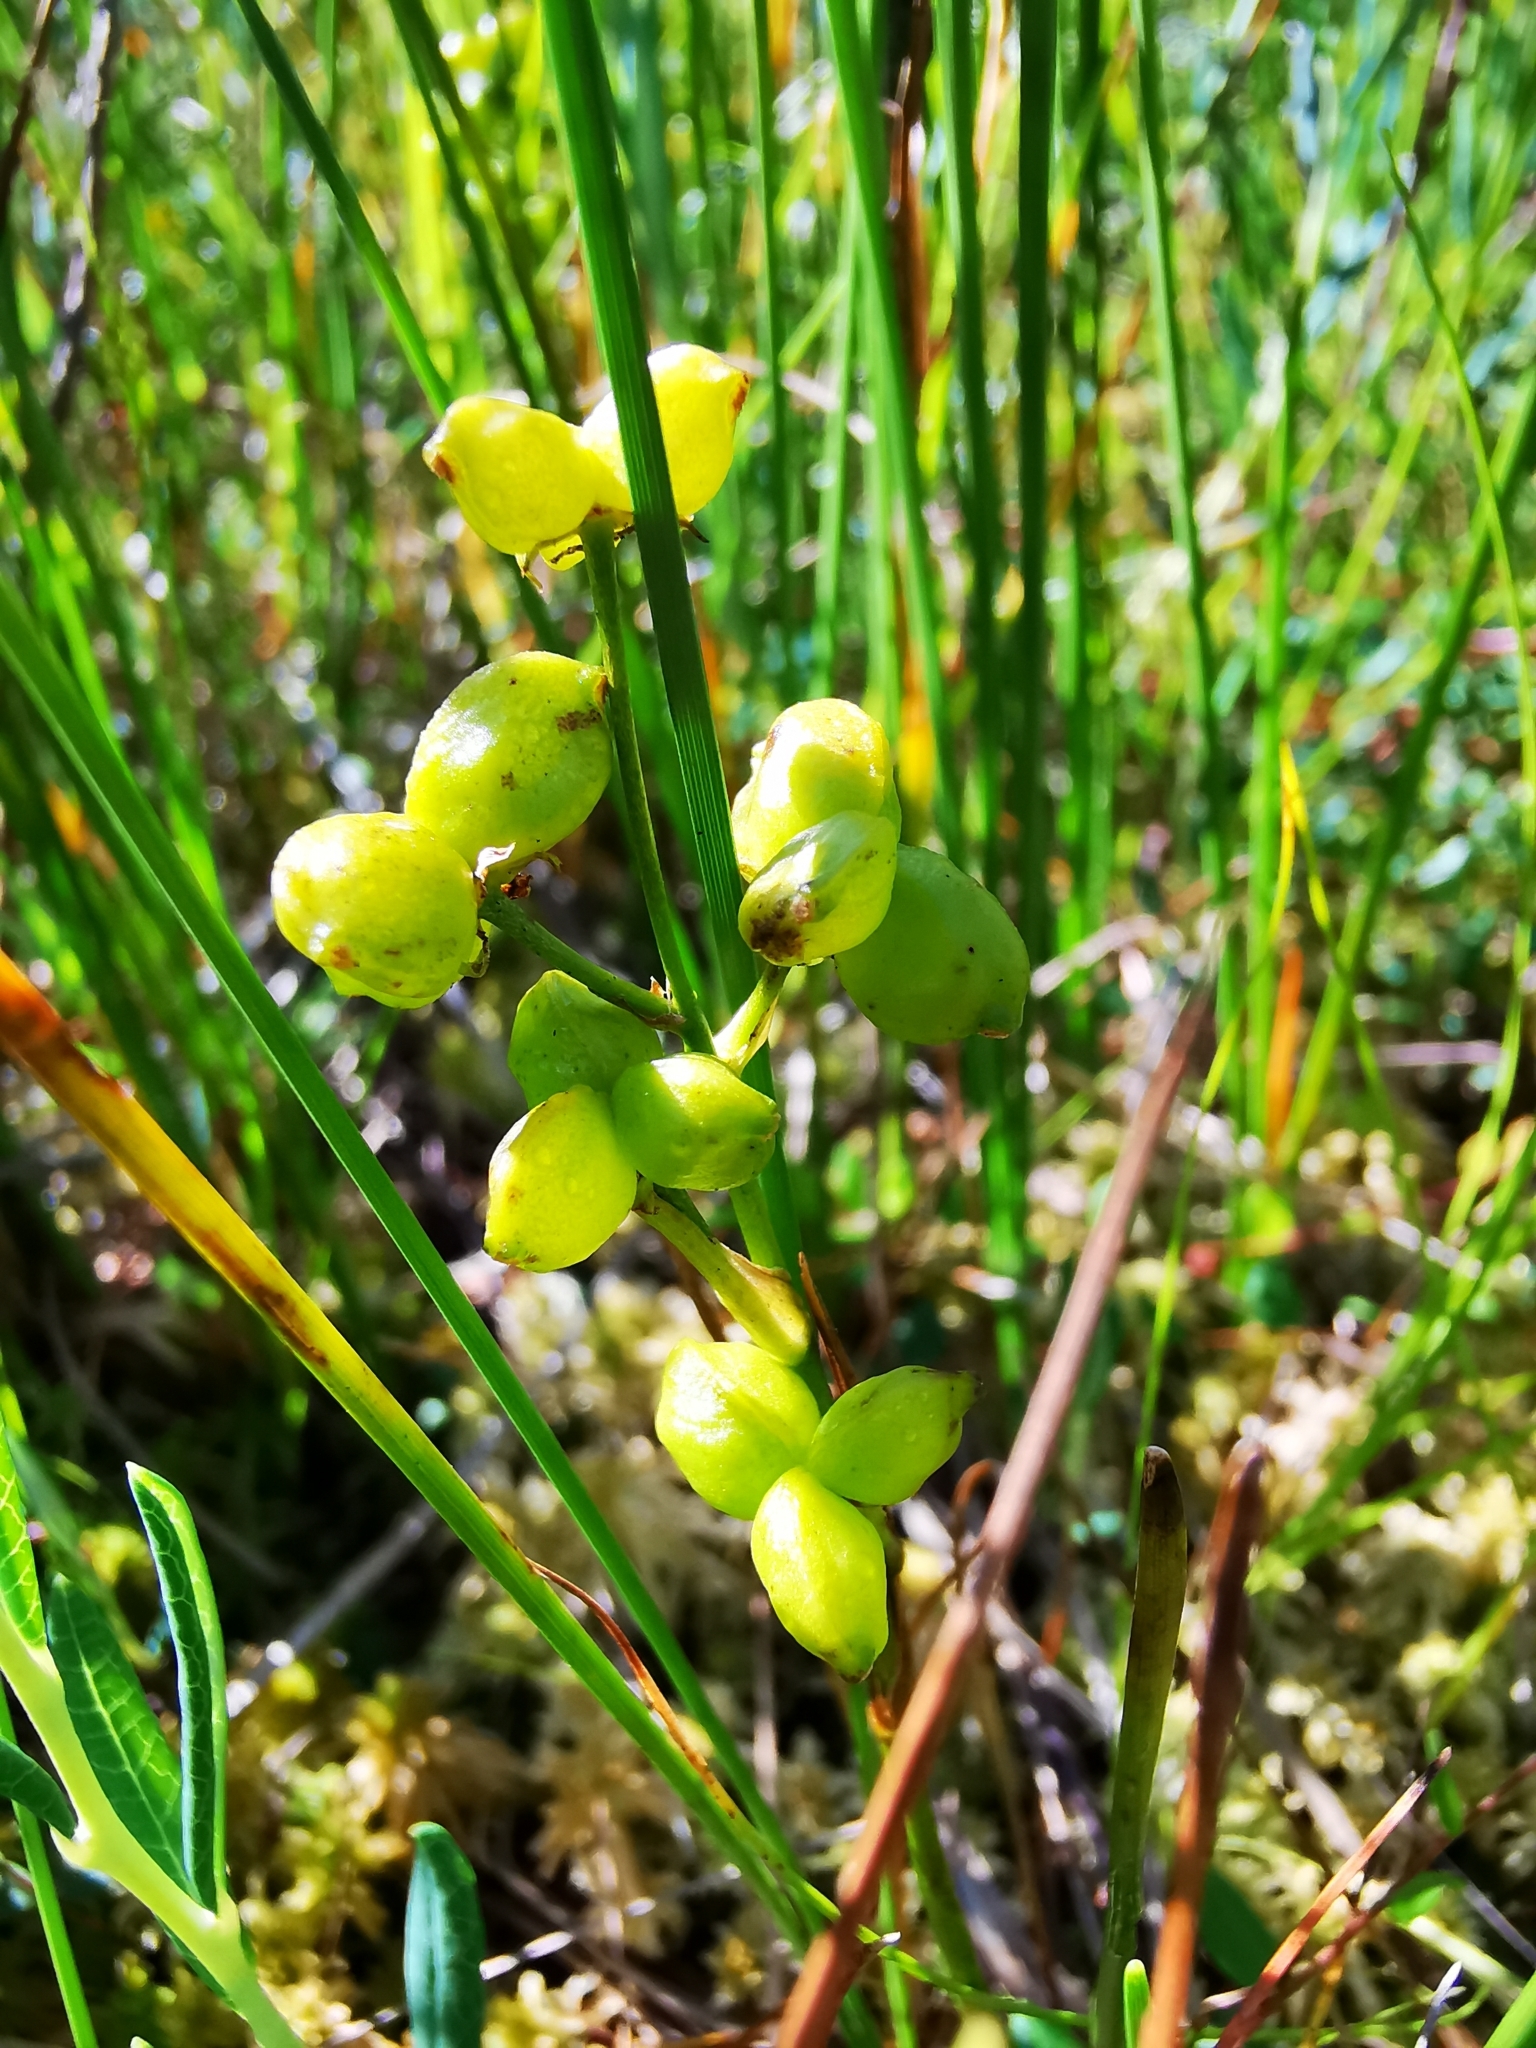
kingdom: Plantae
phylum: Tracheophyta
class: Liliopsida
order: Alismatales
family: Scheuchzeriaceae
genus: Scheuchzeria
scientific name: Scheuchzeria palustris
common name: Rannoch-rush
